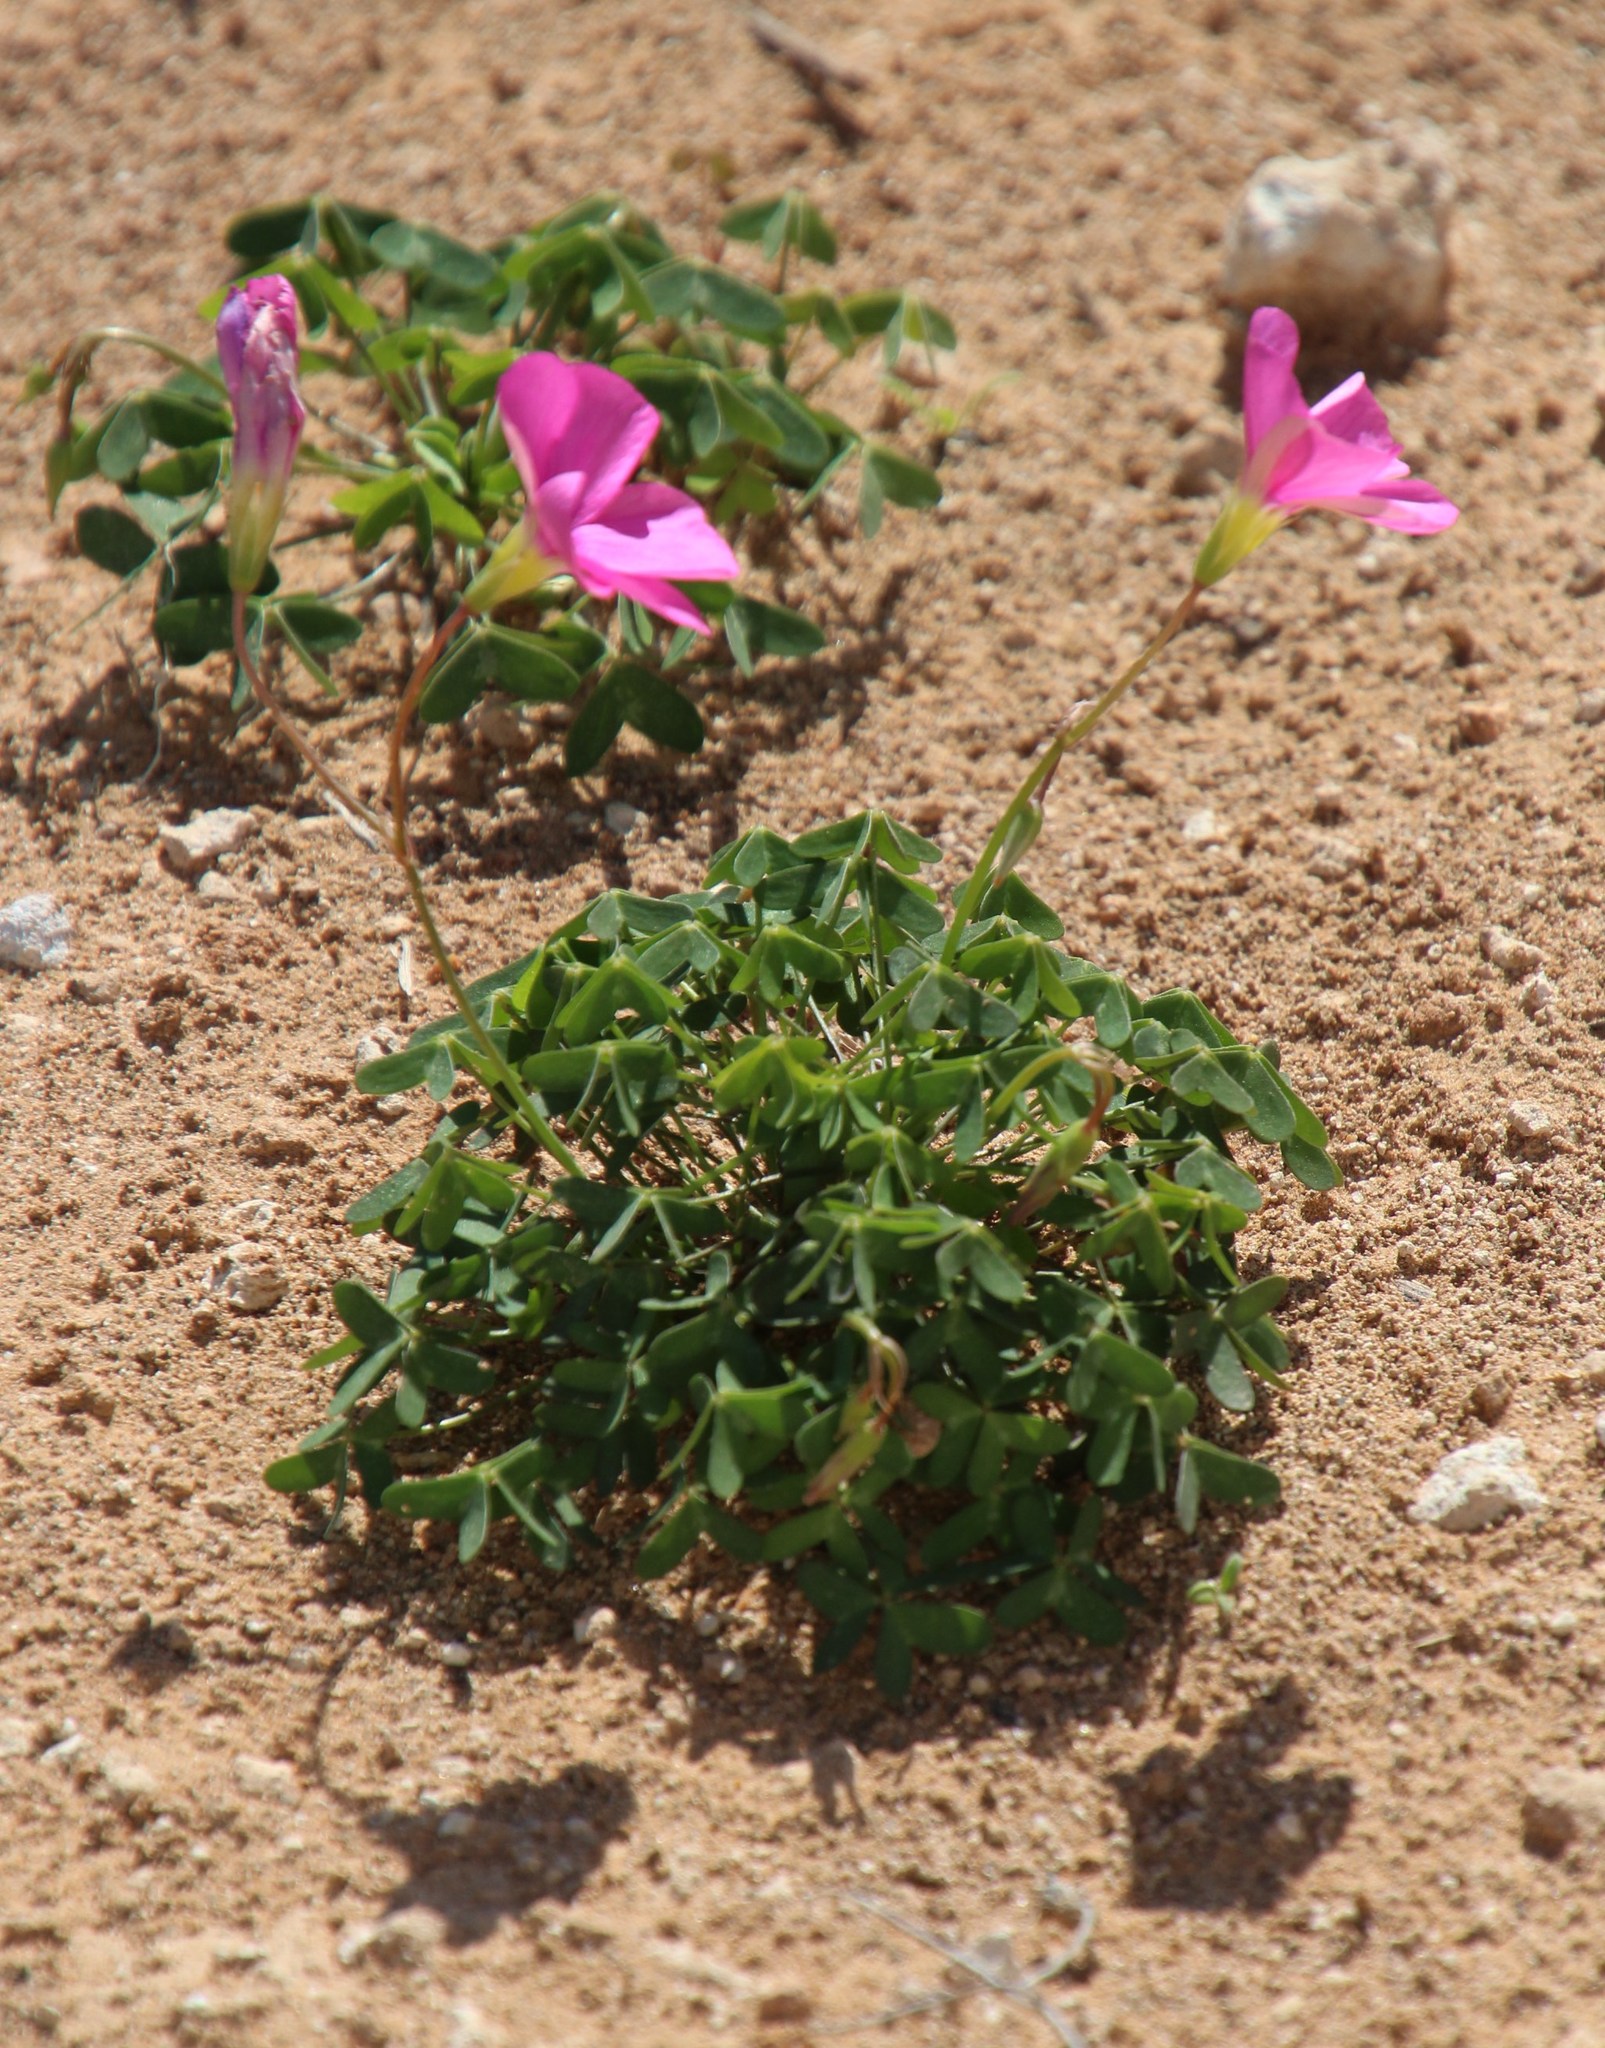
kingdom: Plantae
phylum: Tracheophyta
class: Magnoliopsida
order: Oxalidales
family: Oxalidaceae
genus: Oxalis
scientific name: Oxalis stellata
